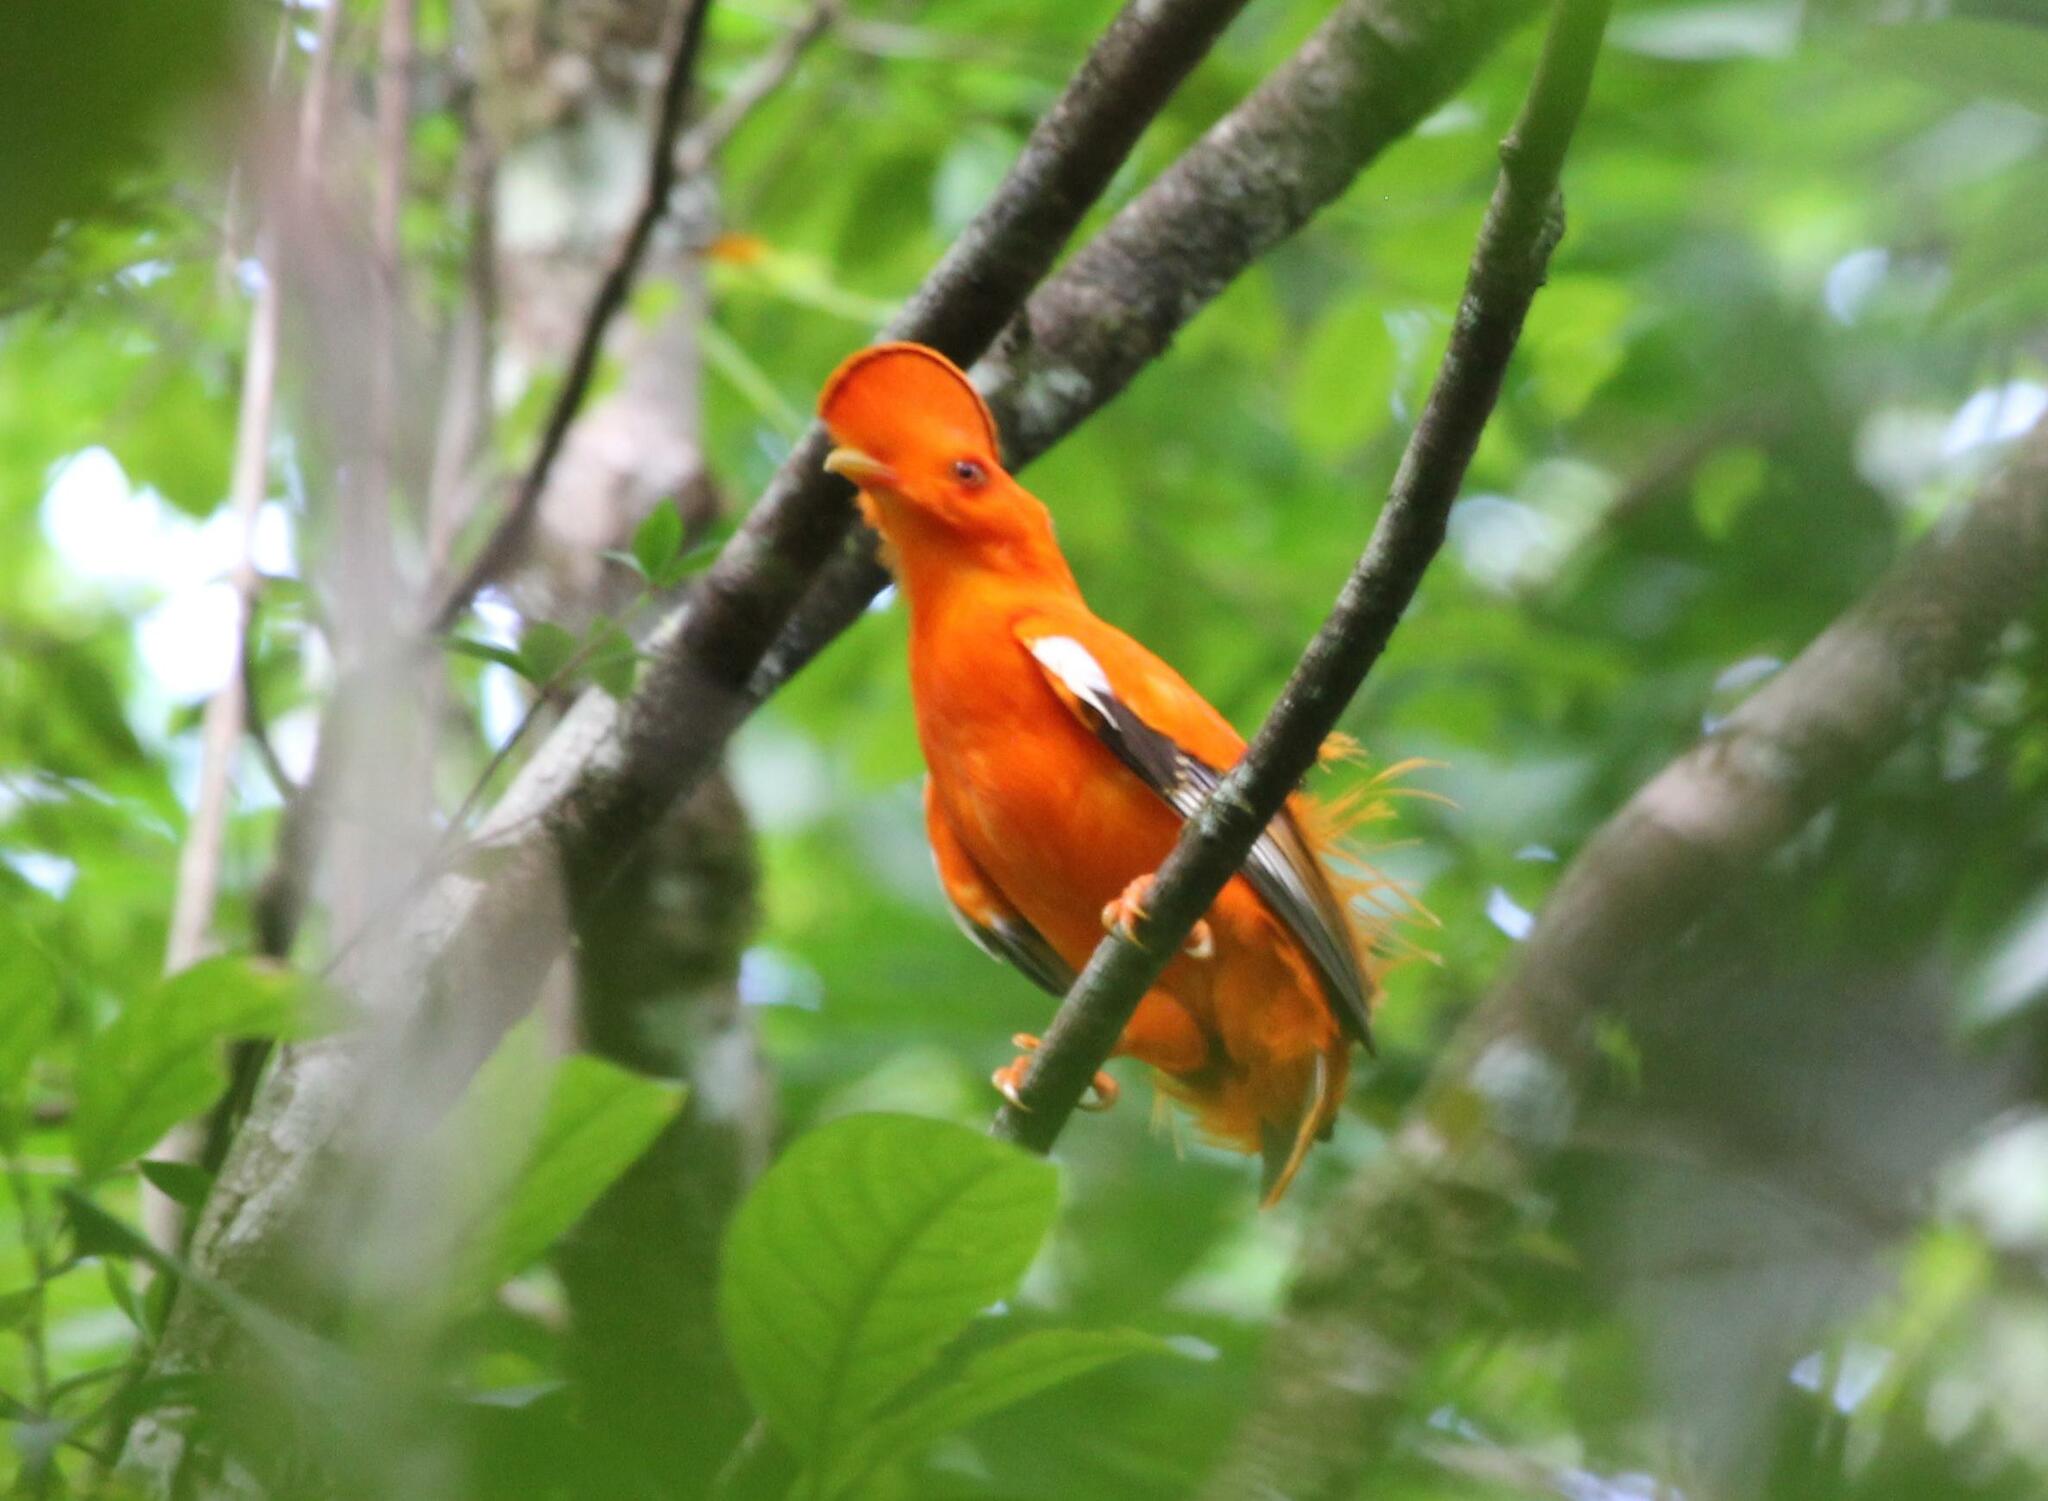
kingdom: Animalia
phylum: Chordata
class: Aves
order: Passeriformes
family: Cotingidae
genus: Rupicola
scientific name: Rupicola rupicola
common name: Guianan cock-of-the-rock
